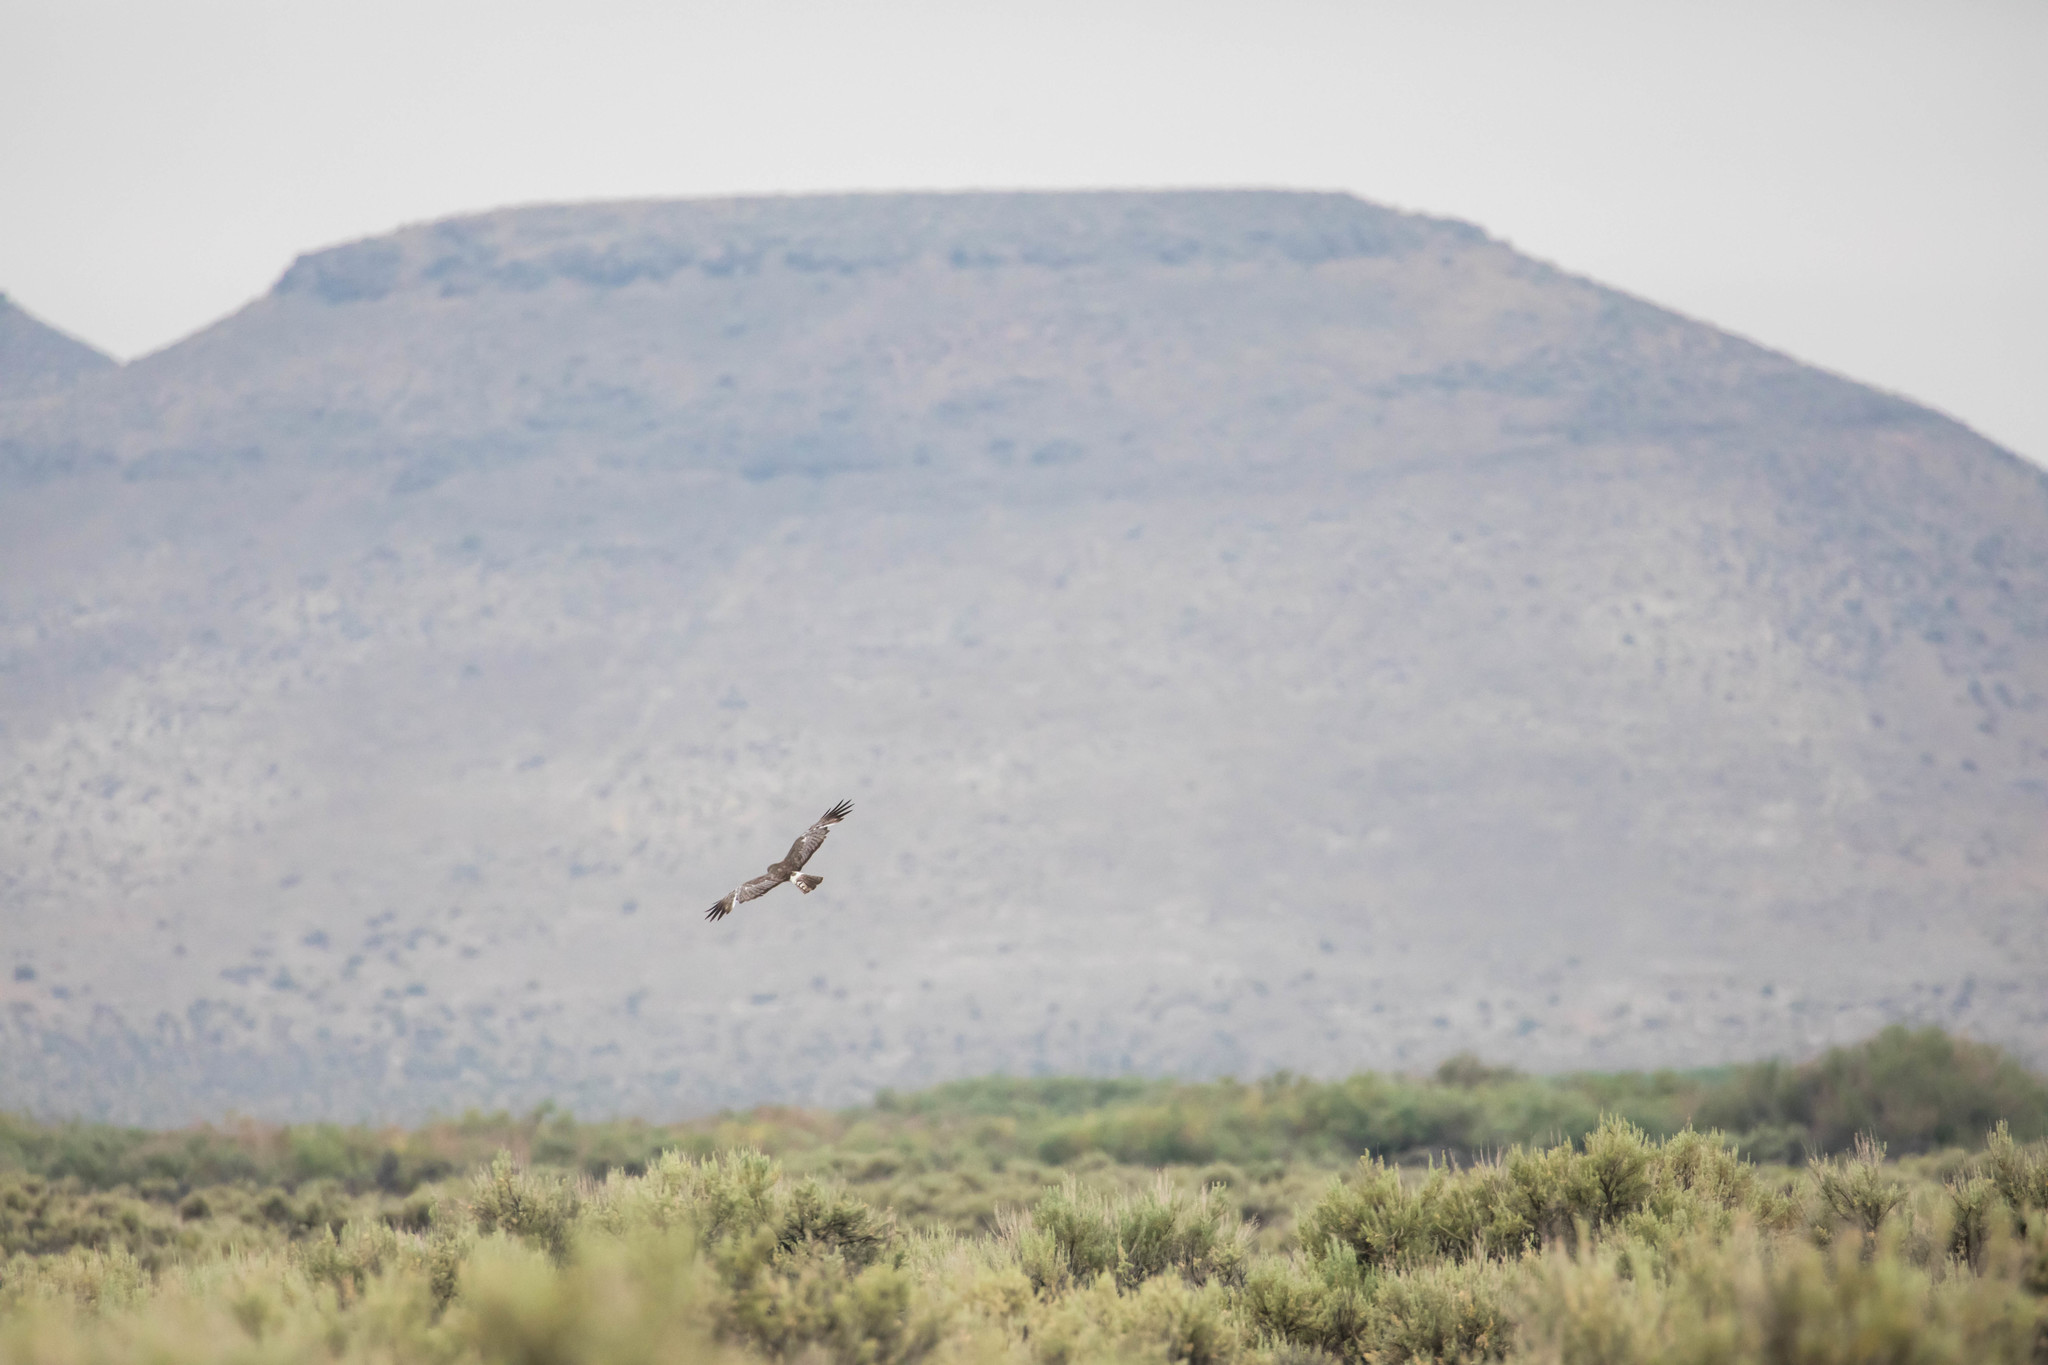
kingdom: Animalia
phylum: Chordata
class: Aves
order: Accipitriformes
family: Accipitridae
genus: Circus
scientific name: Circus cyaneus
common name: Hen harrier
